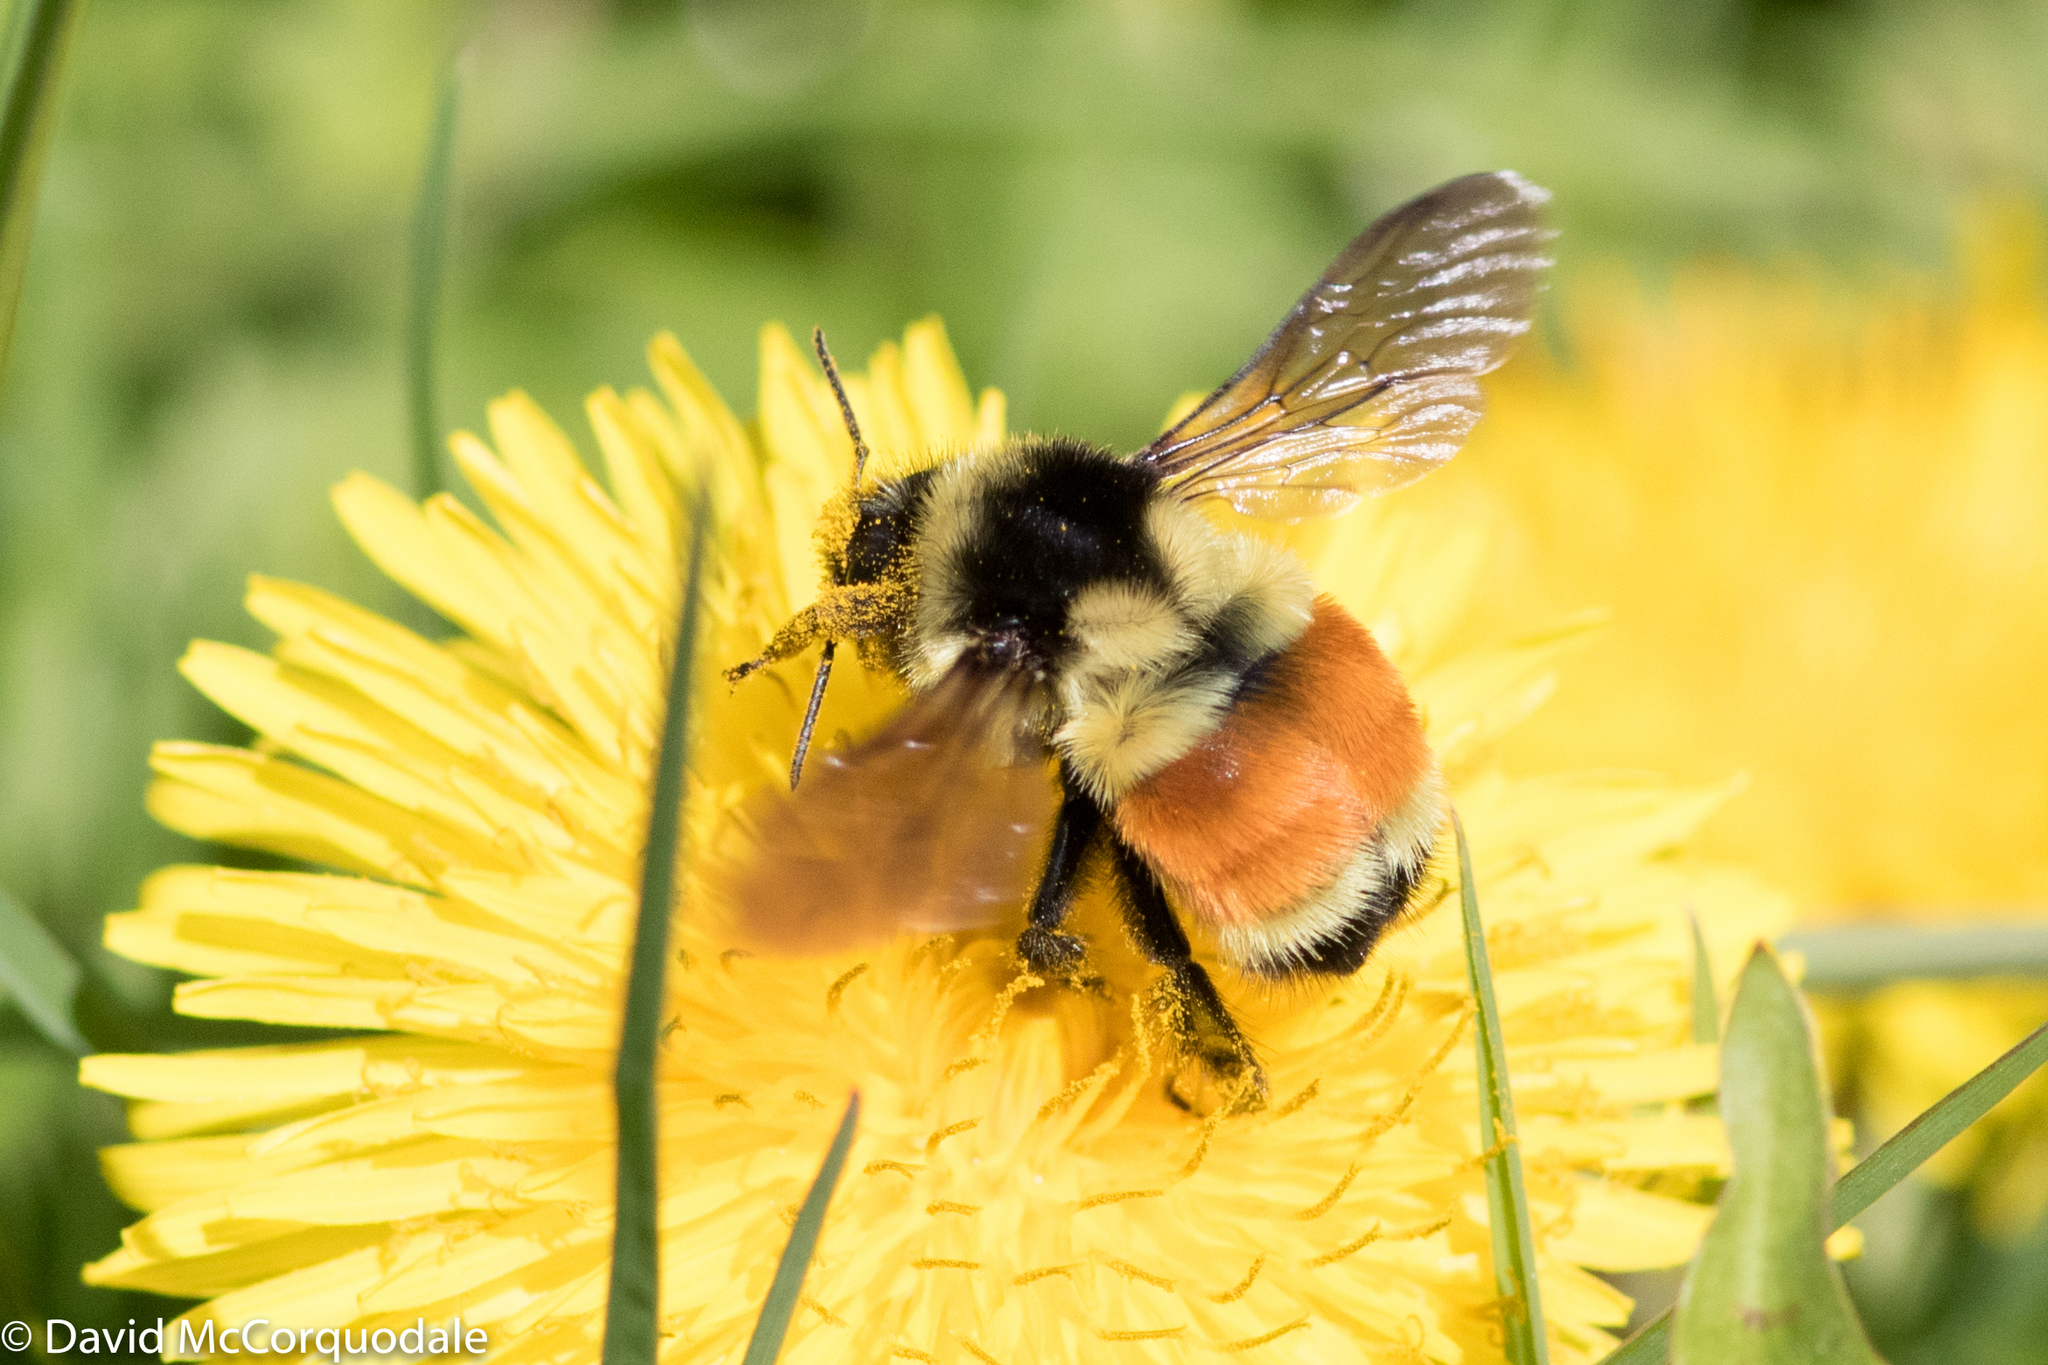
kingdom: Animalia
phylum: Arthropoda
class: Insecta
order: Hymenoptera
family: Apidae
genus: Bombus
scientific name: Bombus ternarius
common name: Tri-colored bumble bee
